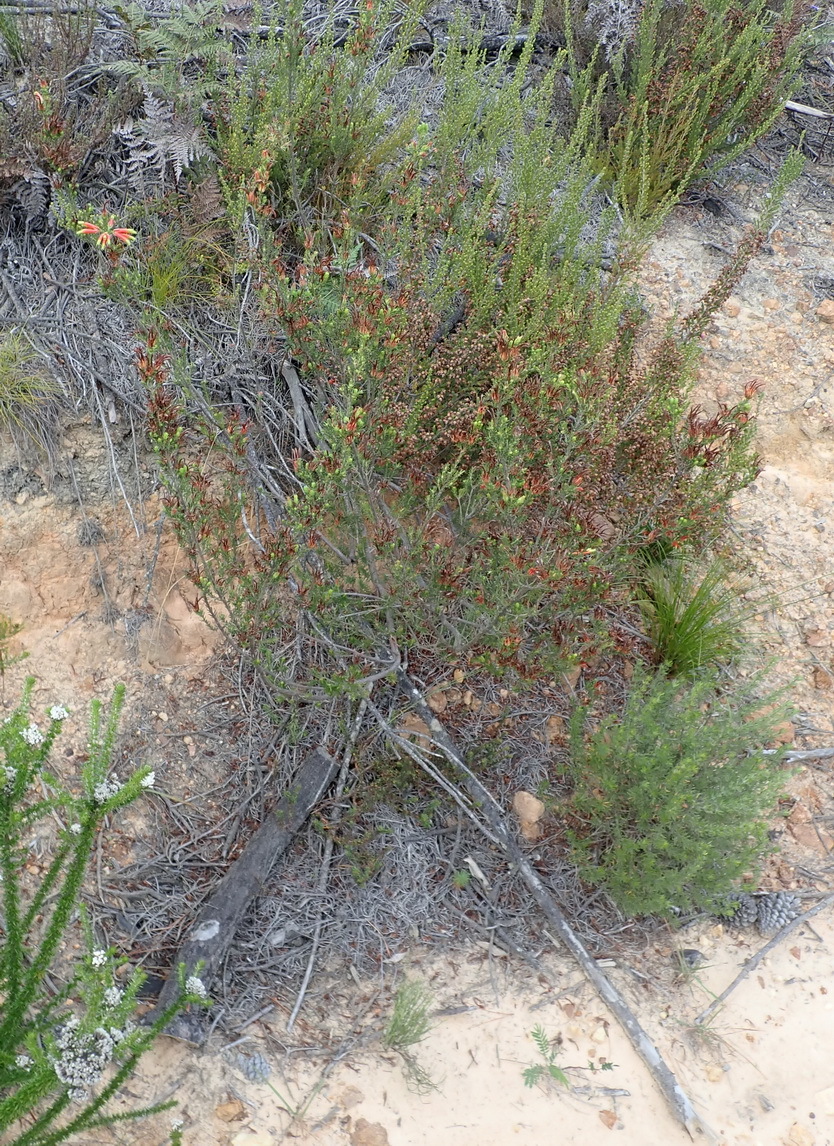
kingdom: Plantae
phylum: Tracheophyta
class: Magnoliopsida
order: Ericales
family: Ericaceae
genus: Erica
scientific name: Erica unicolor
